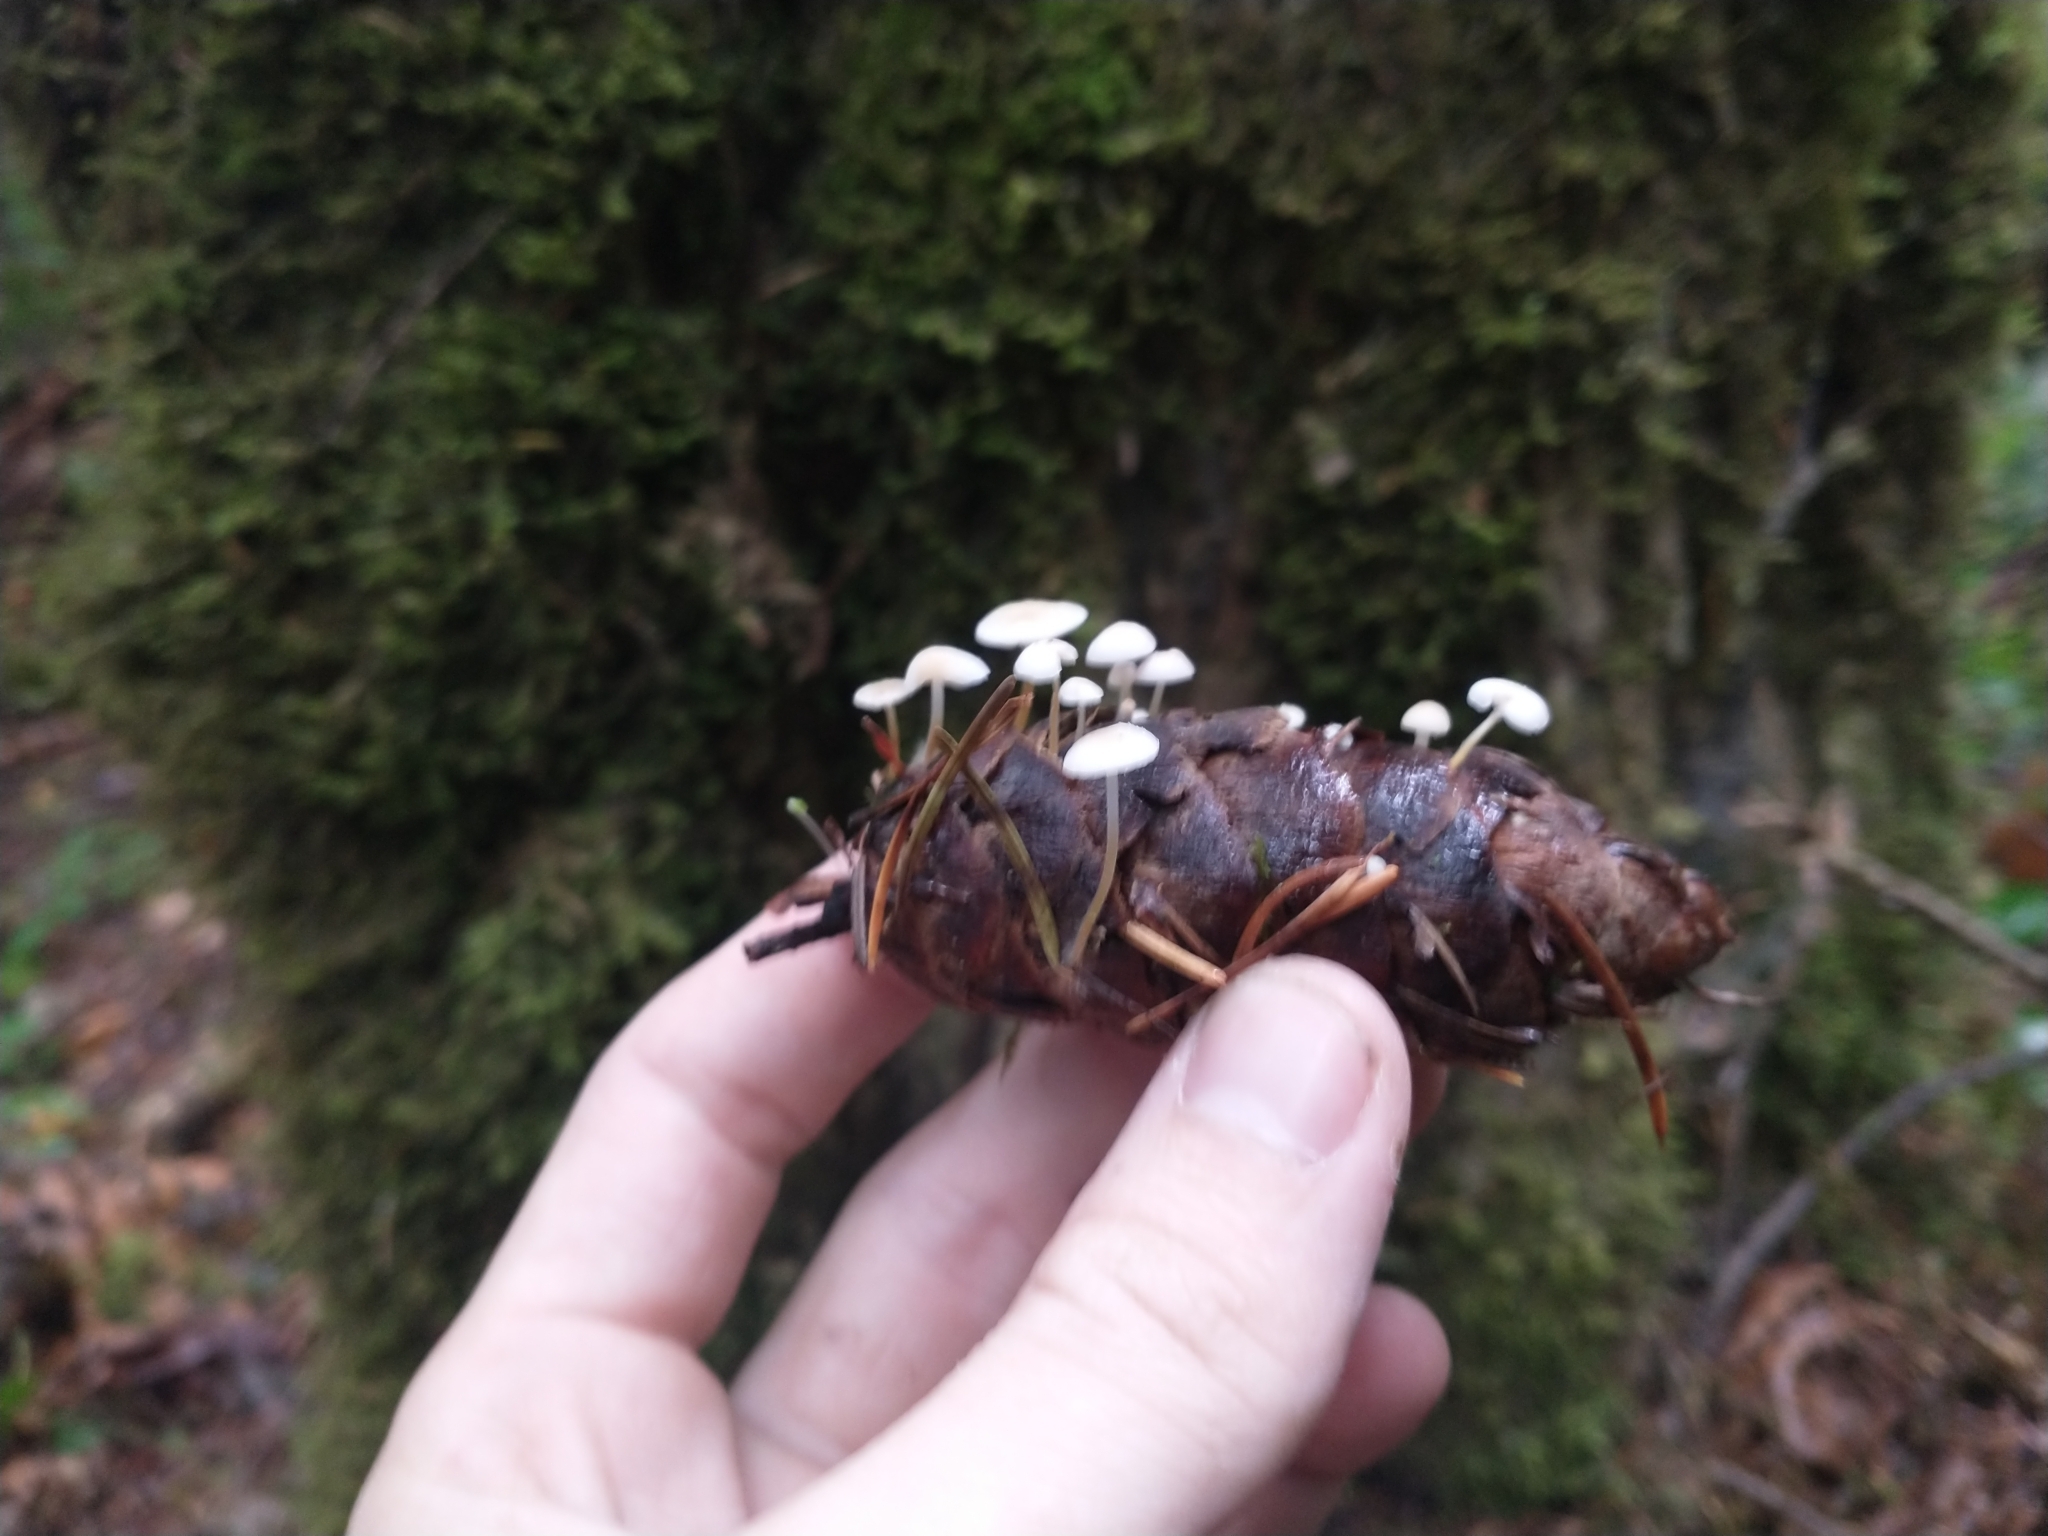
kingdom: Fungi
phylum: Basidiomycota
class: Agaricomycetes
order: Agaricales
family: Physalacriaceae
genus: Strobilurus
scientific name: Strobilurus trullisatus
